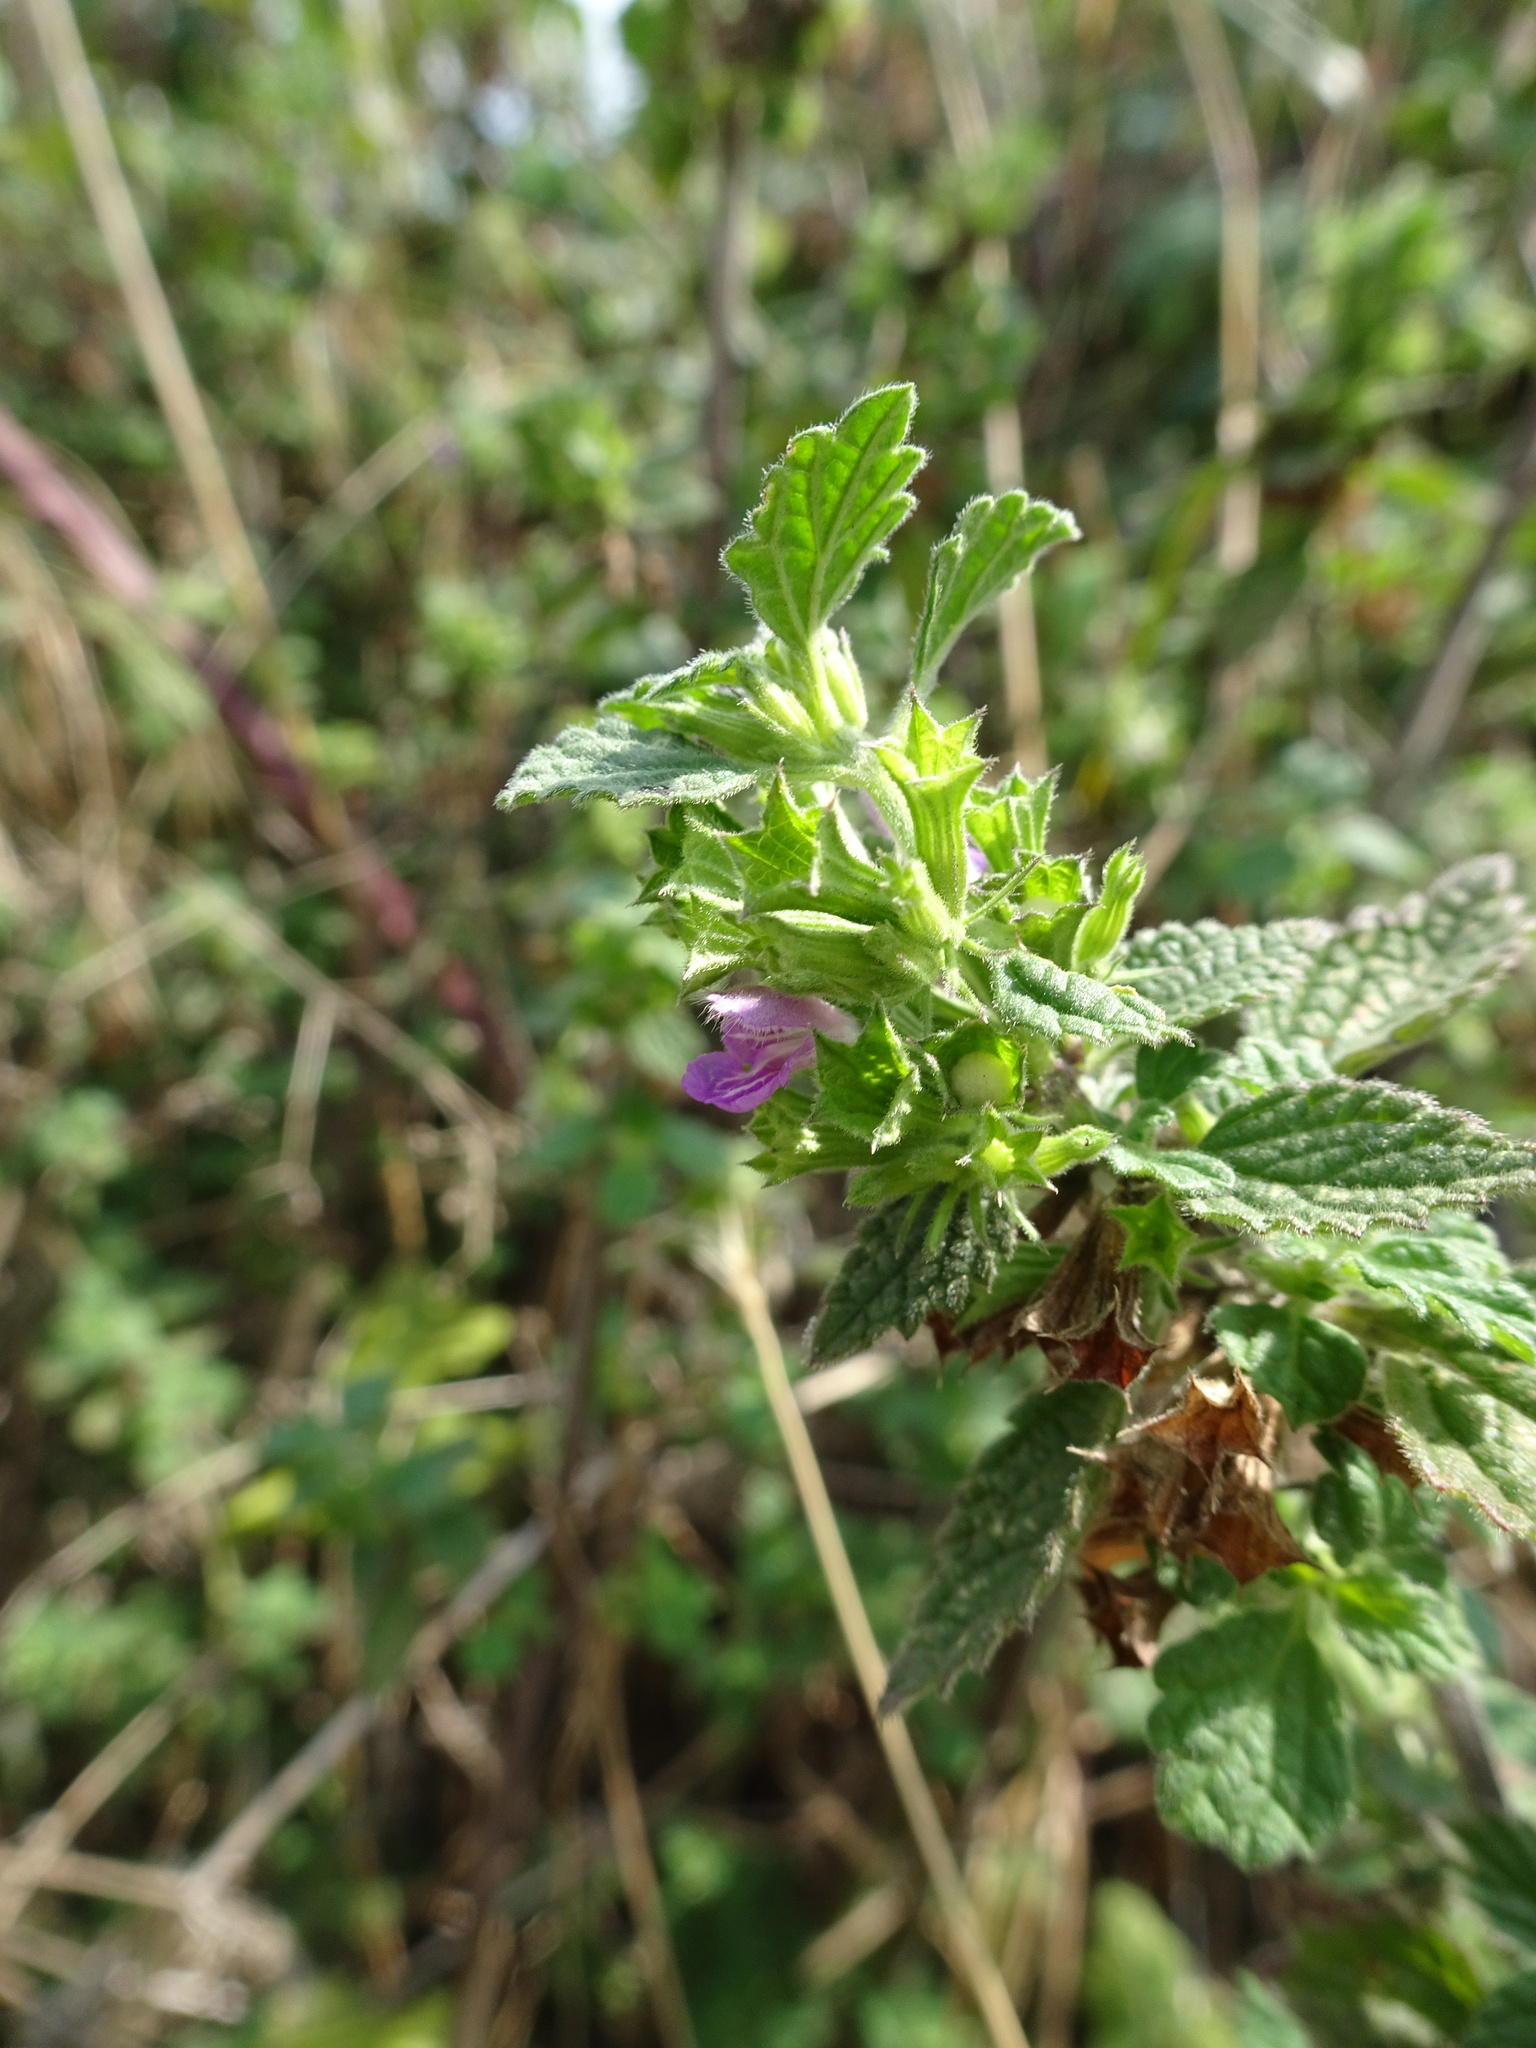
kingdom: Plantae
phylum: Tracheophyta
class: Magnoliopsida
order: Lamiales
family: Lamiaceae
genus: Ballota
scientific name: Ballota nigra
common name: Black horehound
